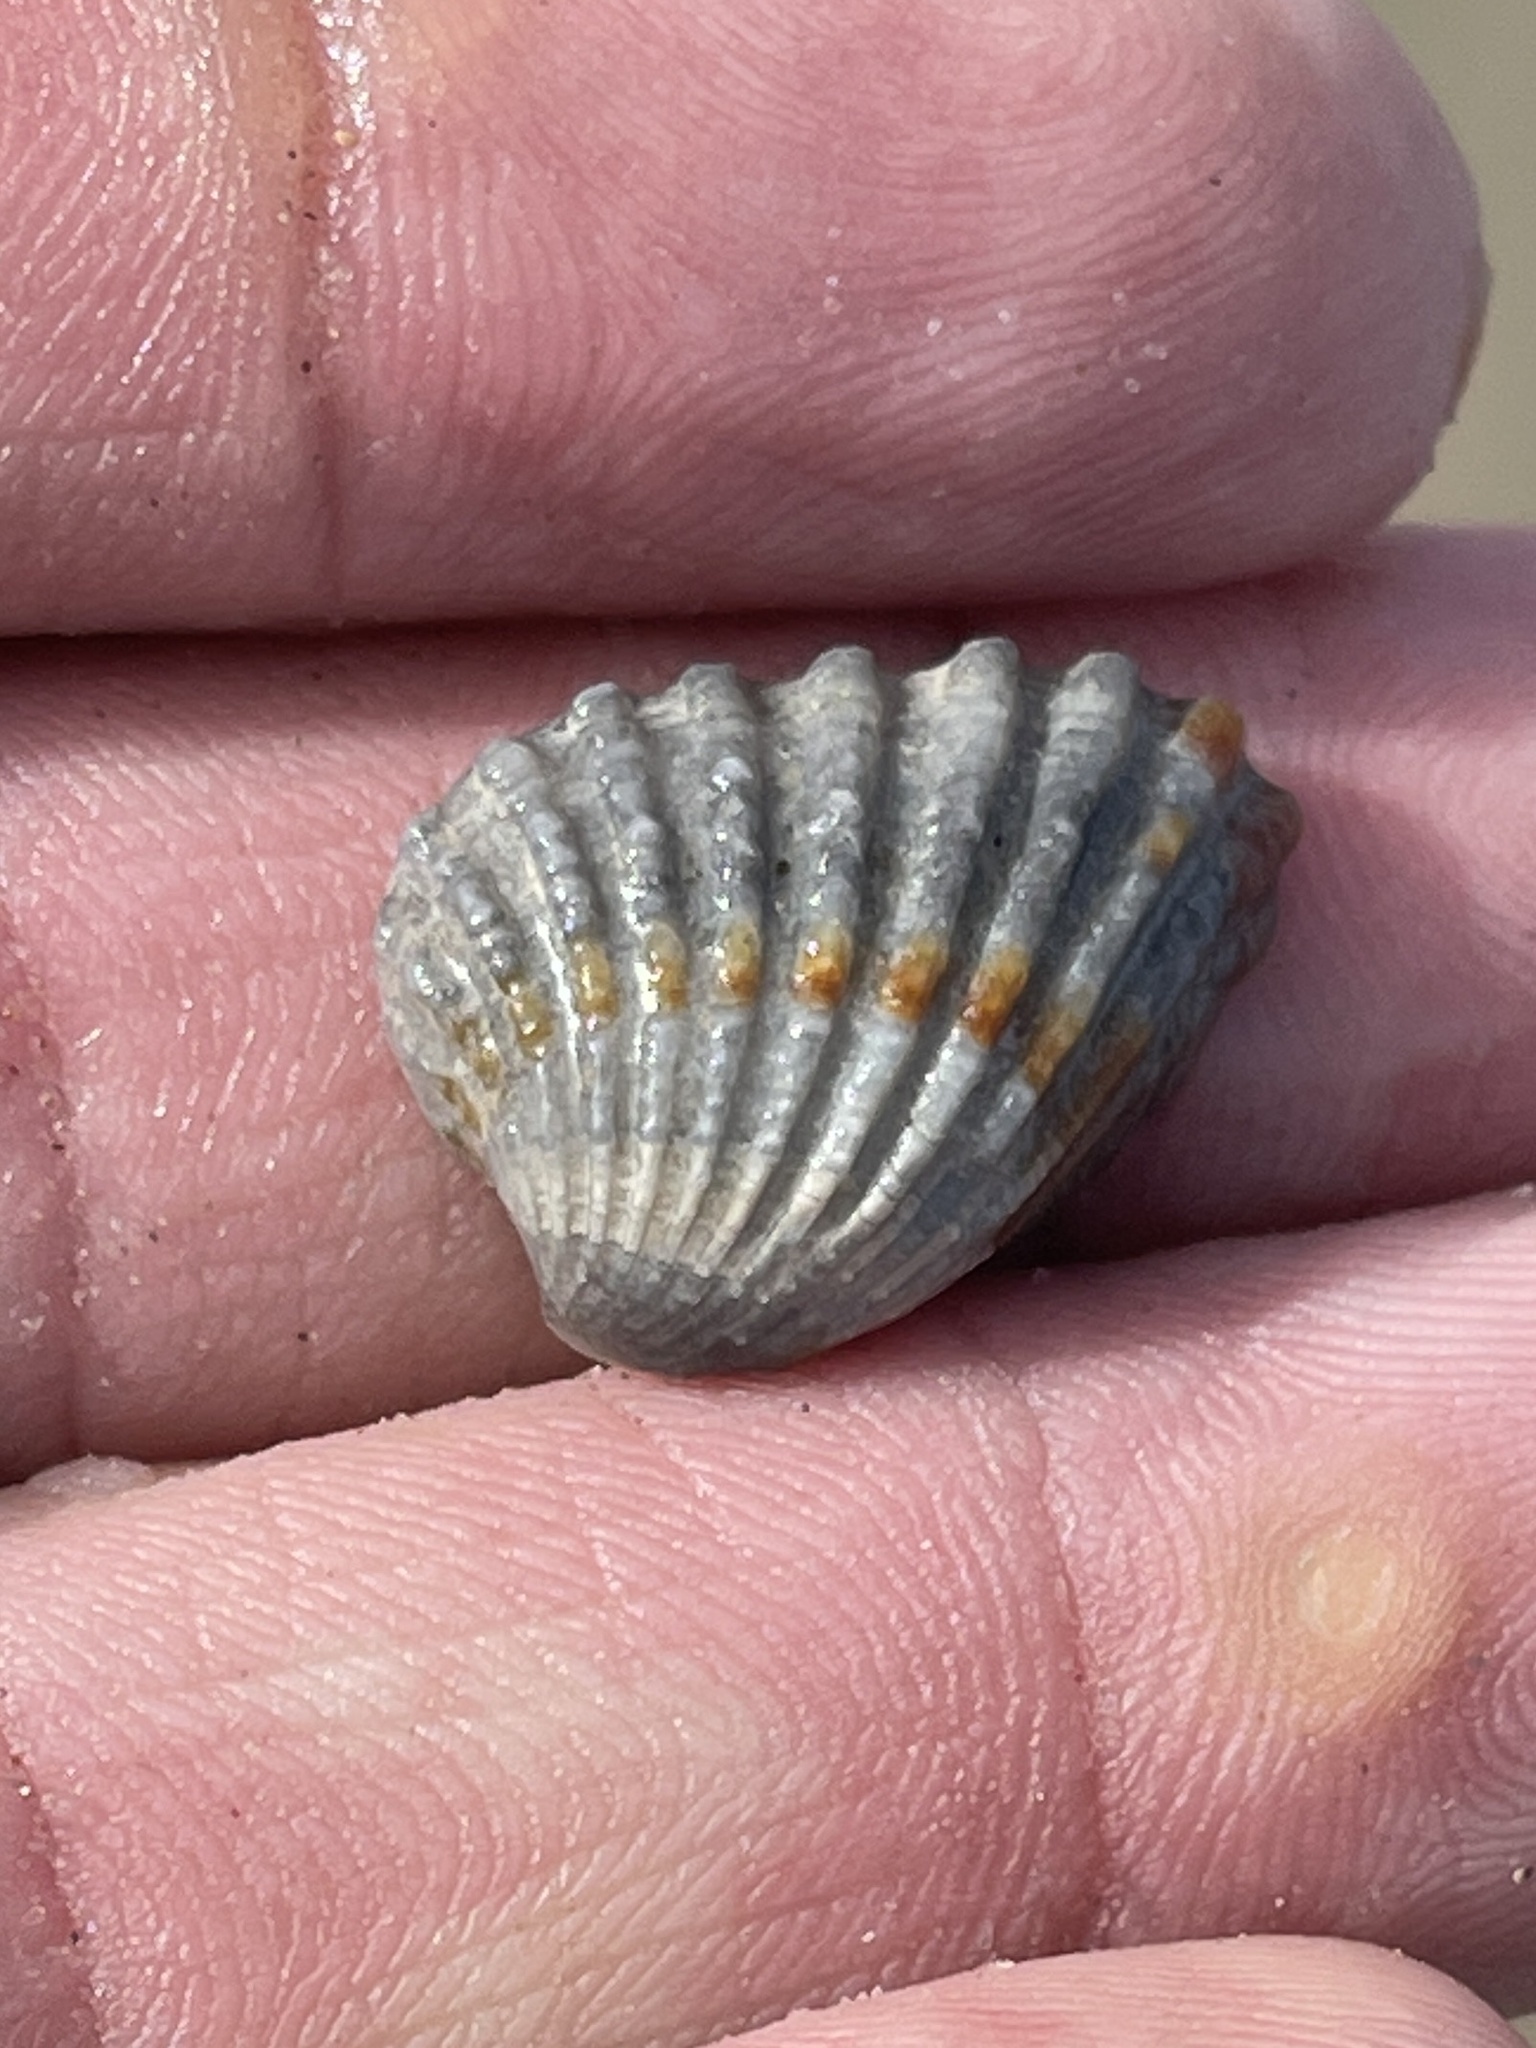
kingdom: Animalia
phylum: Mollusca
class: Bivalvia
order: Carditida
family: Carditidae
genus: Cardites
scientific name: Cardites floridanus
